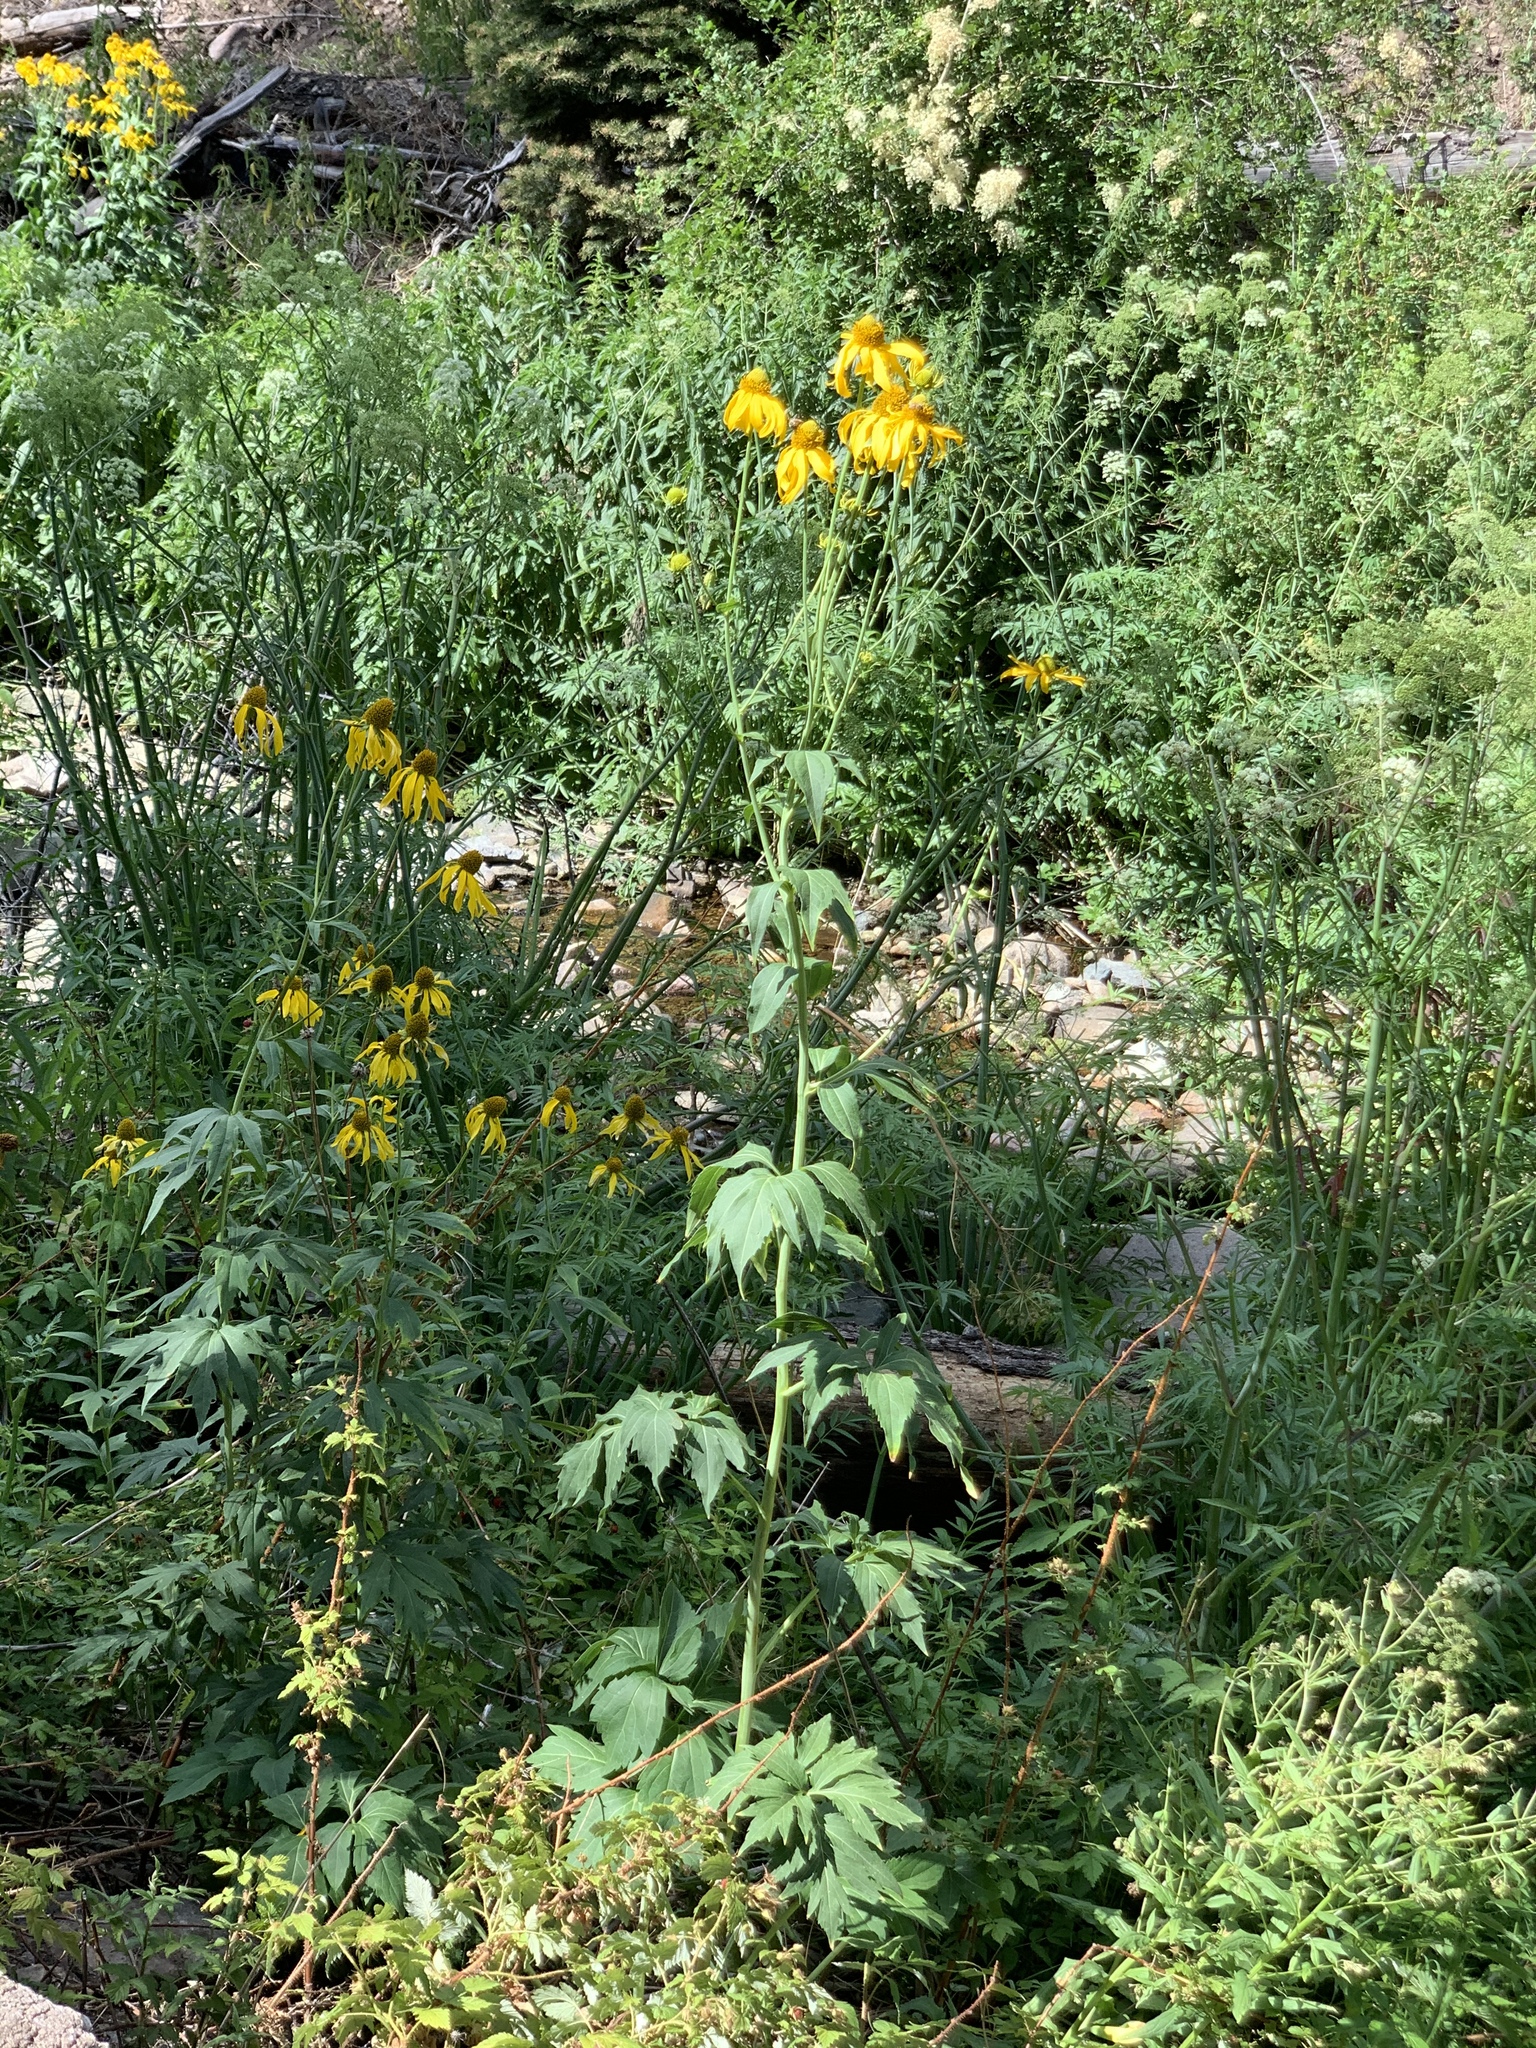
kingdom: Plantae
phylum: Tracheophyta
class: Magnoliopsida
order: Asterales
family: Asteraceae
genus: Rudbeckia
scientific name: Rudbeckia laciniata
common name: Coneflower
